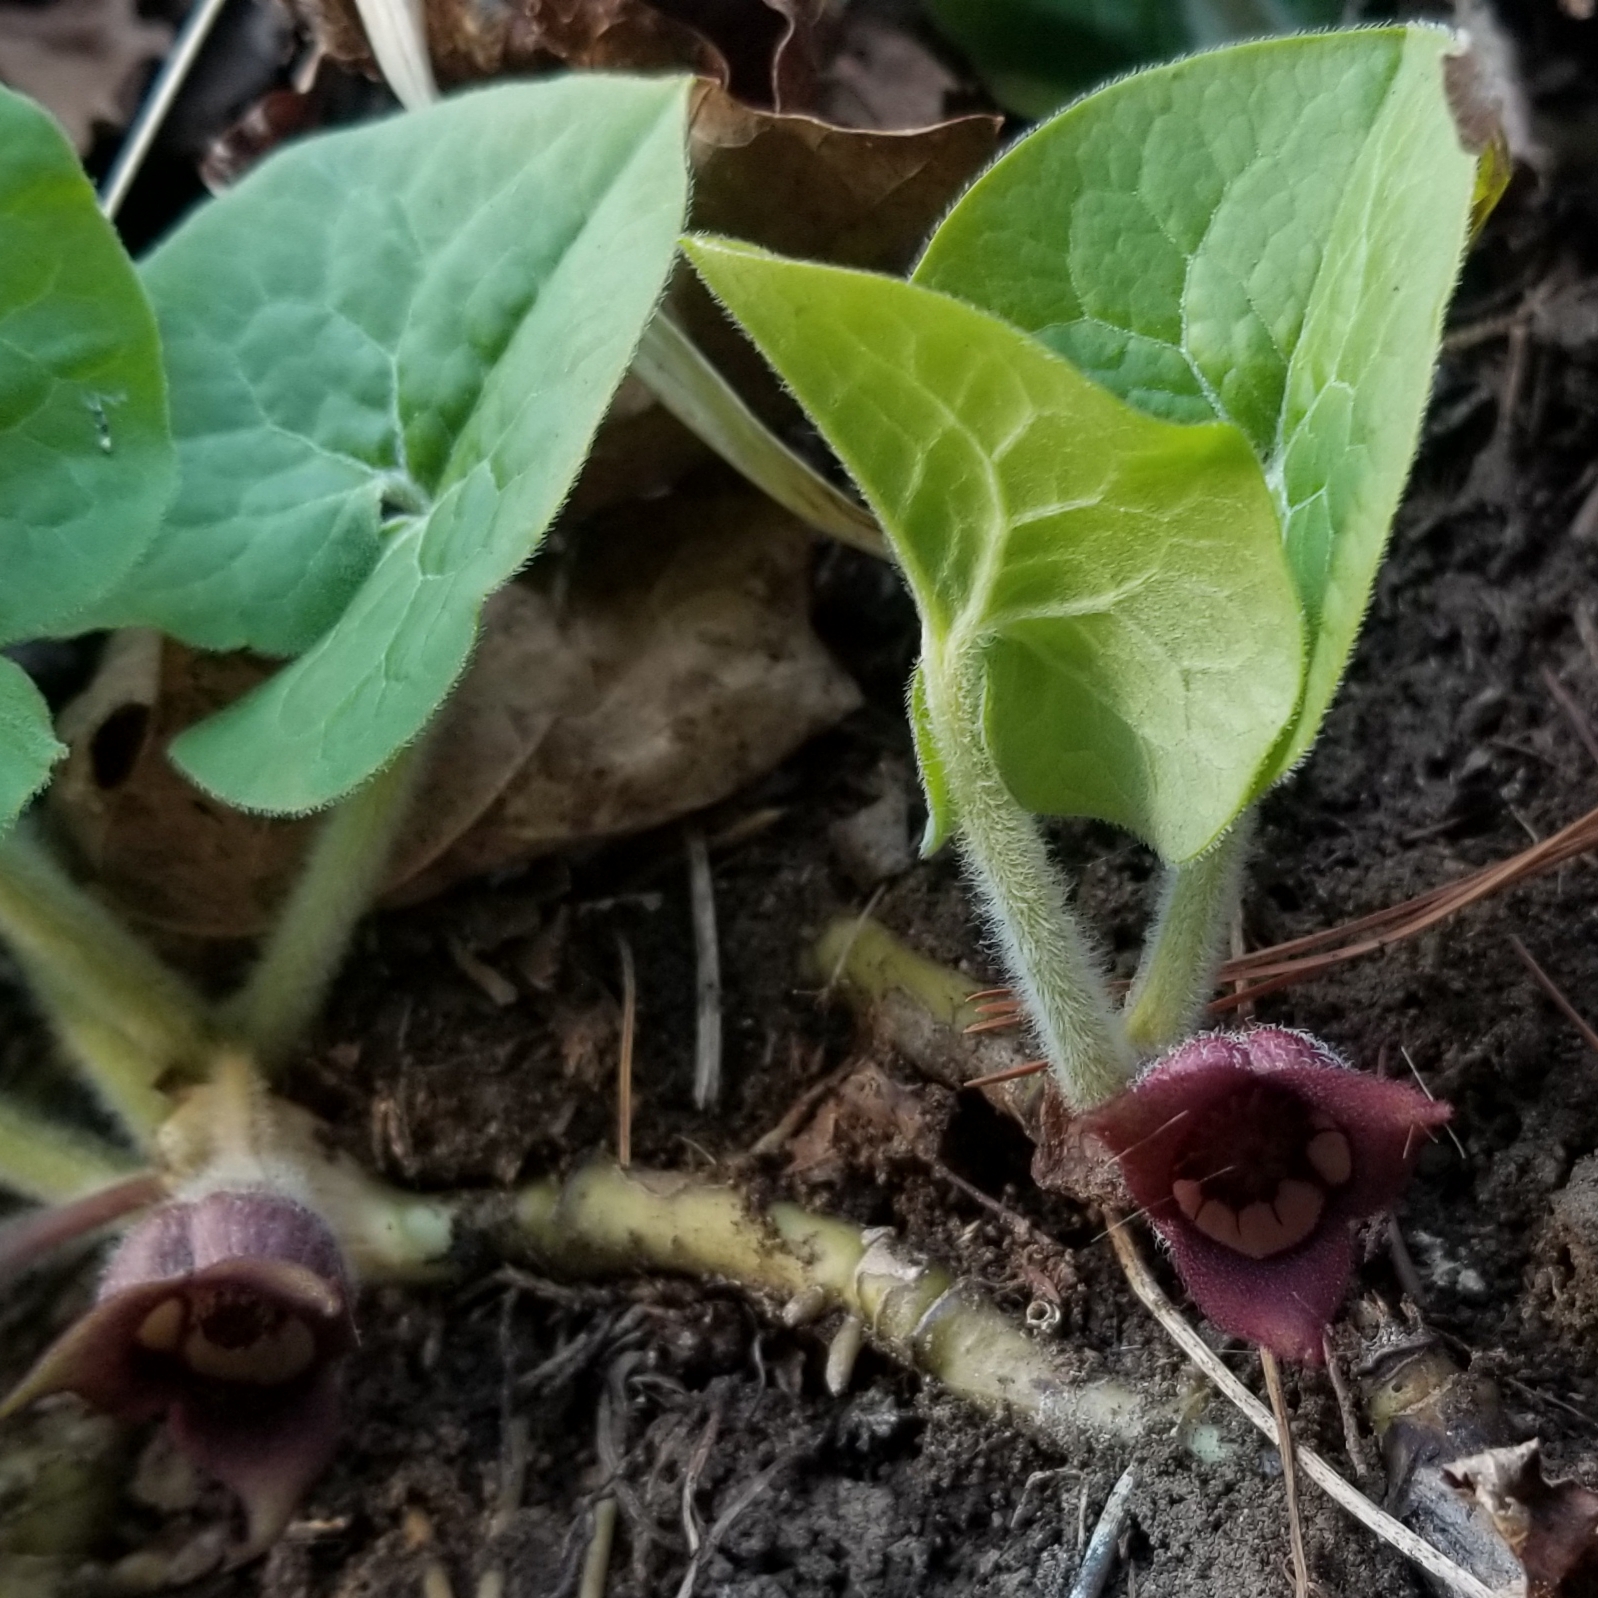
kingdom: Plantae
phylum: Tracheophyta
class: Magnoliopsida
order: Piperales
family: Aristolochiaceae
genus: Asarum
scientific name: Asarum canadense
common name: Wild ginger
